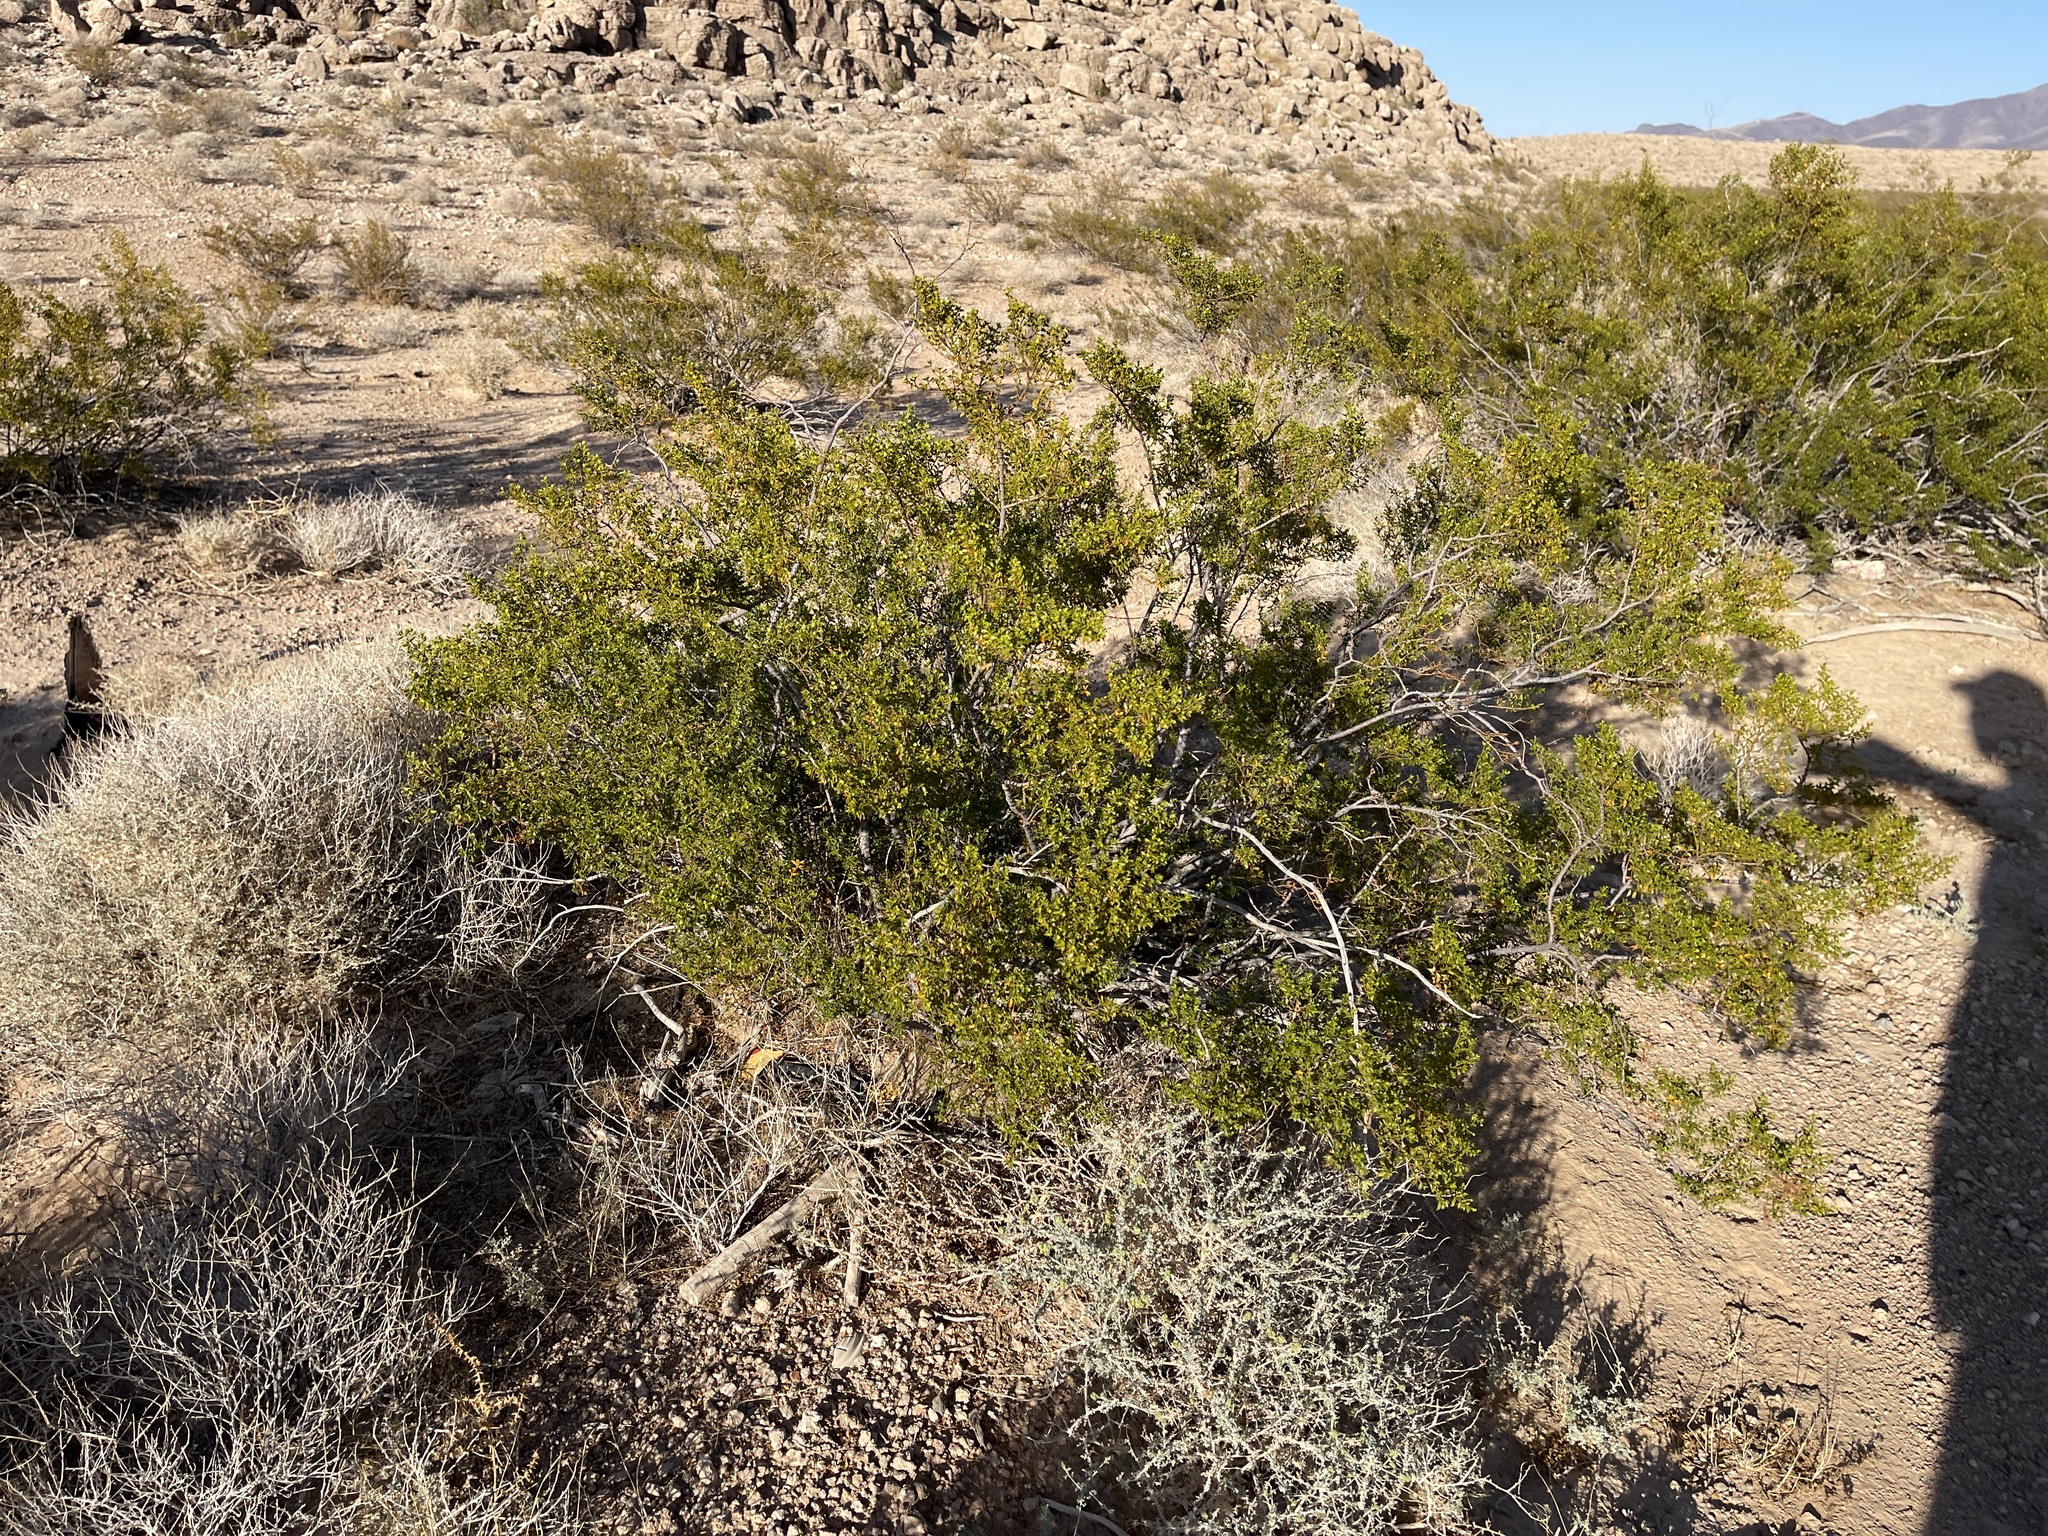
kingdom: Plantae
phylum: Tracheophyta
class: Magnoliopsida
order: Zygophyllales
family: Zygophyllaceae
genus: Larrea
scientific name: Larrea tridentata
